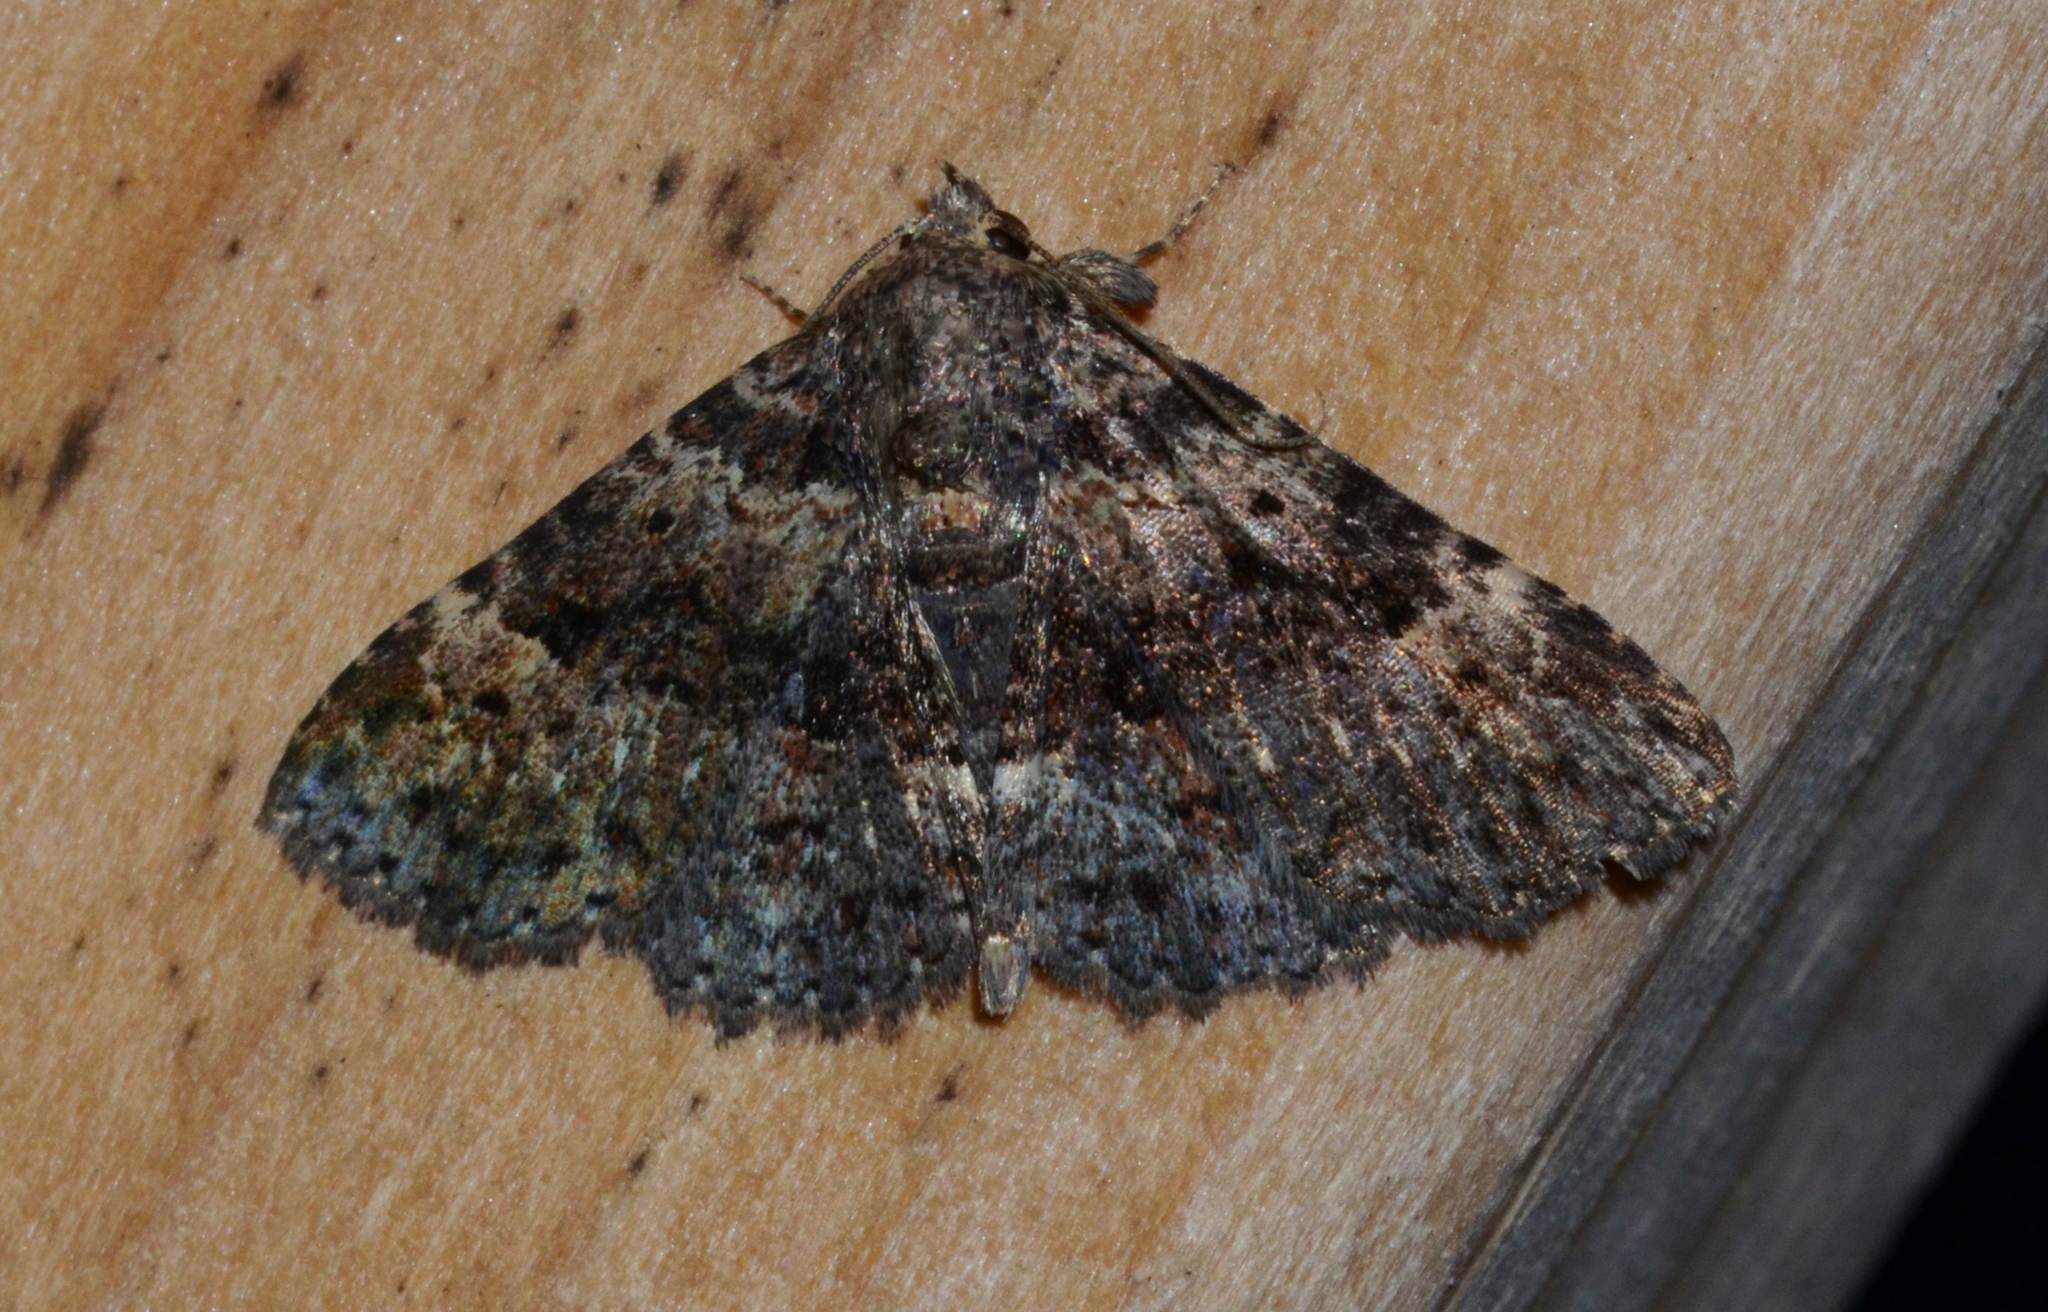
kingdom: Animalia
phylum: Arthropoda
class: Insecta
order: Lepidoptera
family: Erebidae
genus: Metalectra
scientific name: Metalectra discalis
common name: Common fungus moth
